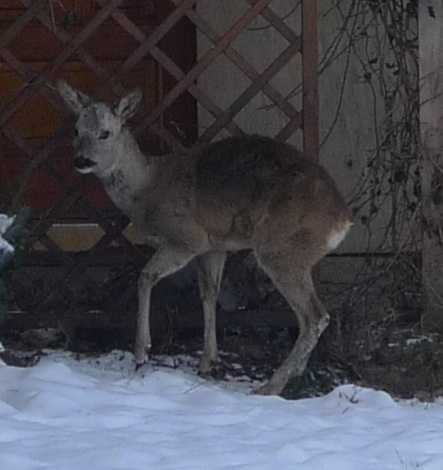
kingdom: Animalia
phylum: Chordata
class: Mammalia
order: Artiodactyla
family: Cervidae
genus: Capreolus
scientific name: Capreolus capreolus
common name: Western roe deer
